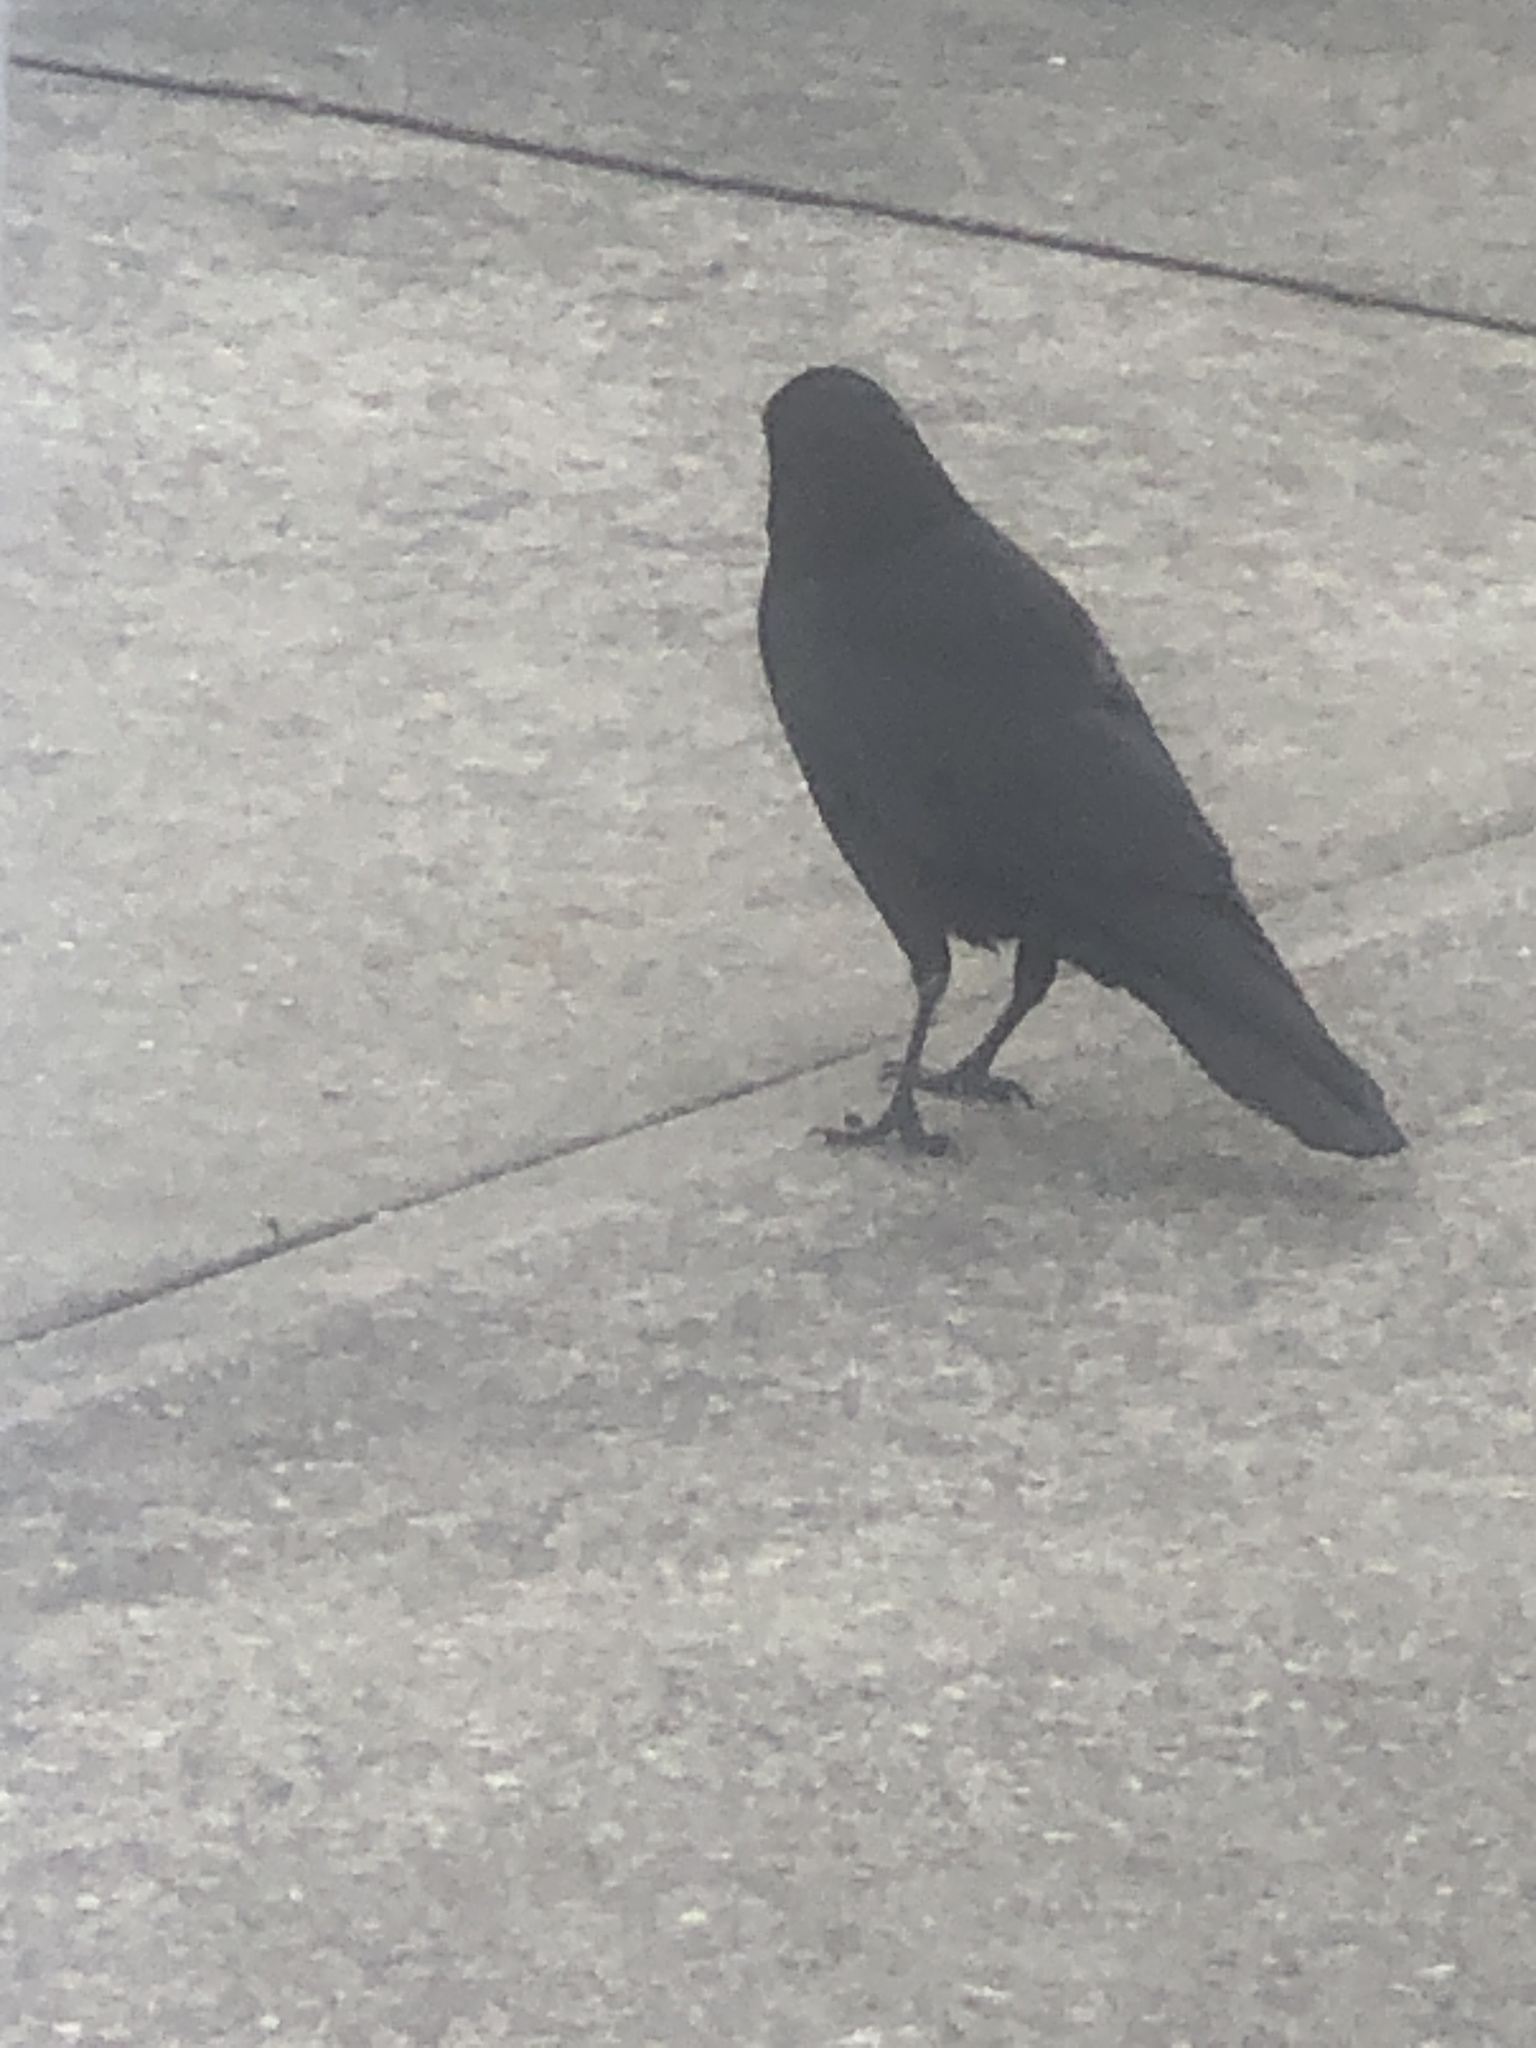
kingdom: Animalia
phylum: Chordata
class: Aves
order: Passeriformes
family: Corvidae
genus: Corvus
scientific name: Corvus brachyrhynchos
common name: American crow
